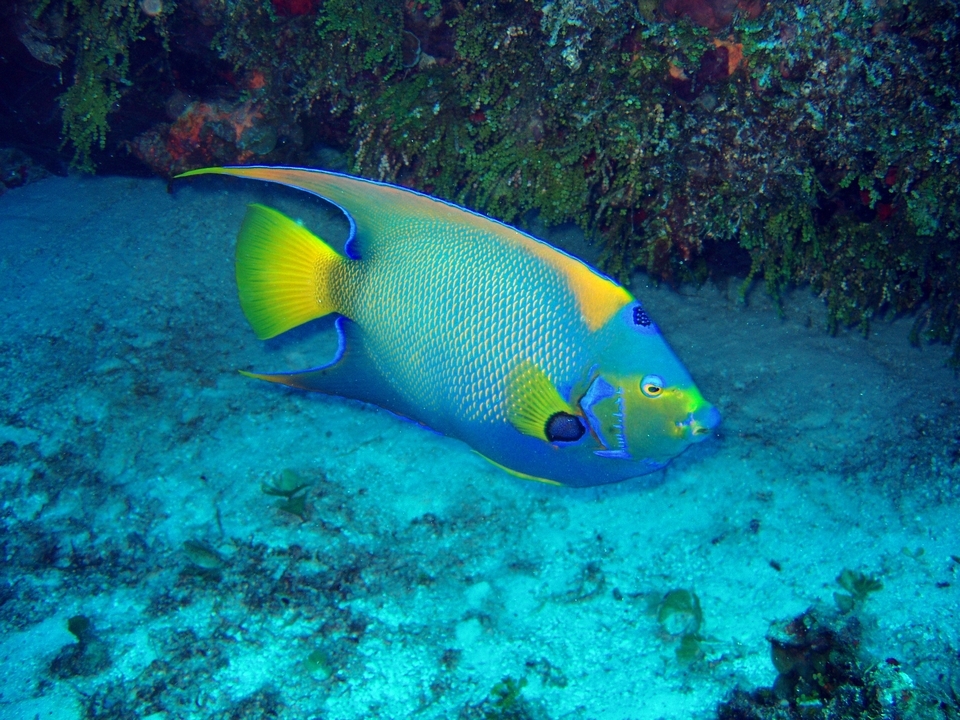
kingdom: Animalia
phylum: Chordata
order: Perciformes
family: Pomacanthidae
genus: Holacanthus
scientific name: Holacanthus ciliaris
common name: Queen angelfish
